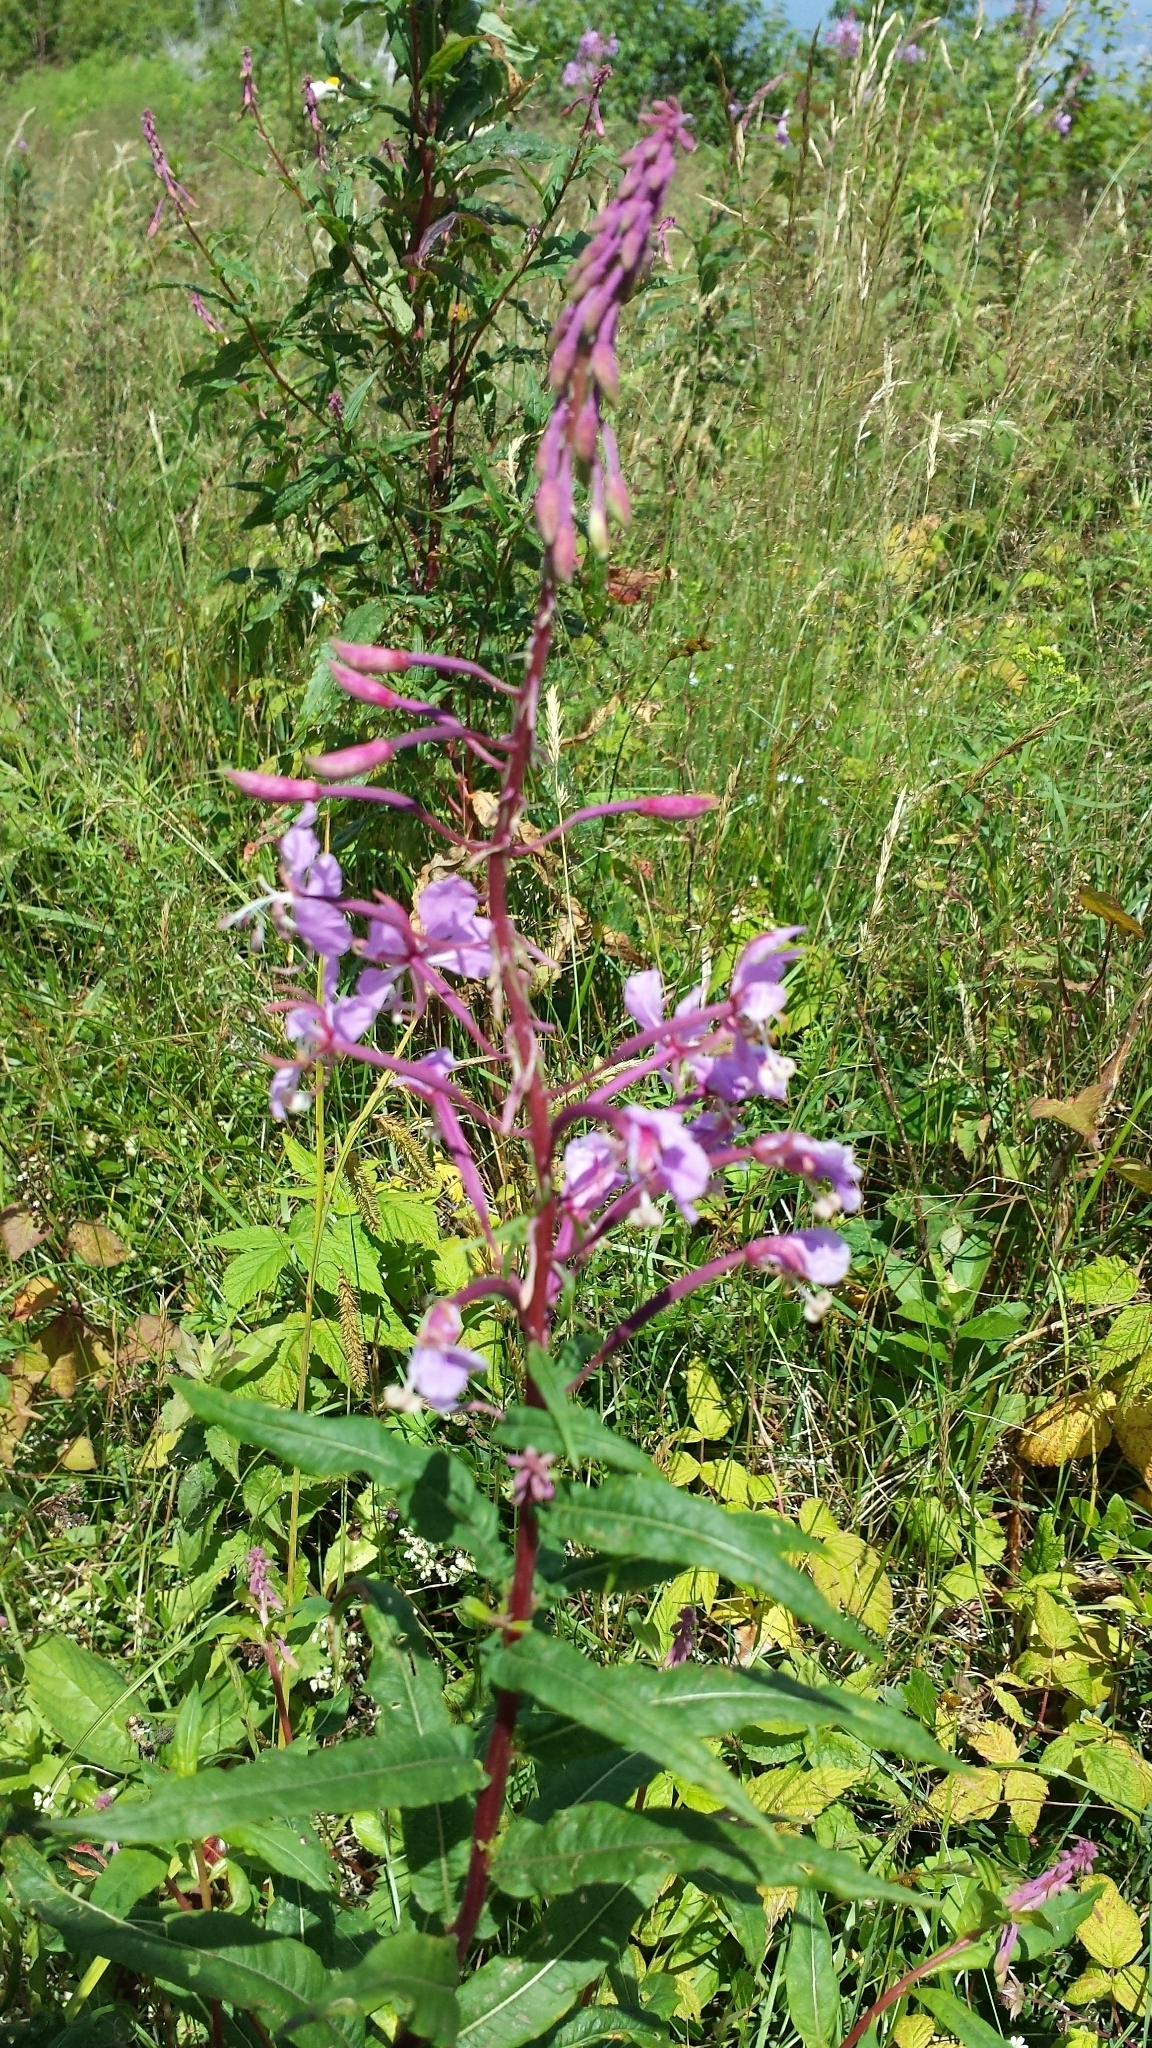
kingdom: Plantae
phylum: Tracheophyta
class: Magnoliopsida
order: Myrtales
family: Onagraceae
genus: Chamaenerion
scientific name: Chamaenerion angustifolium
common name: Fireweed
